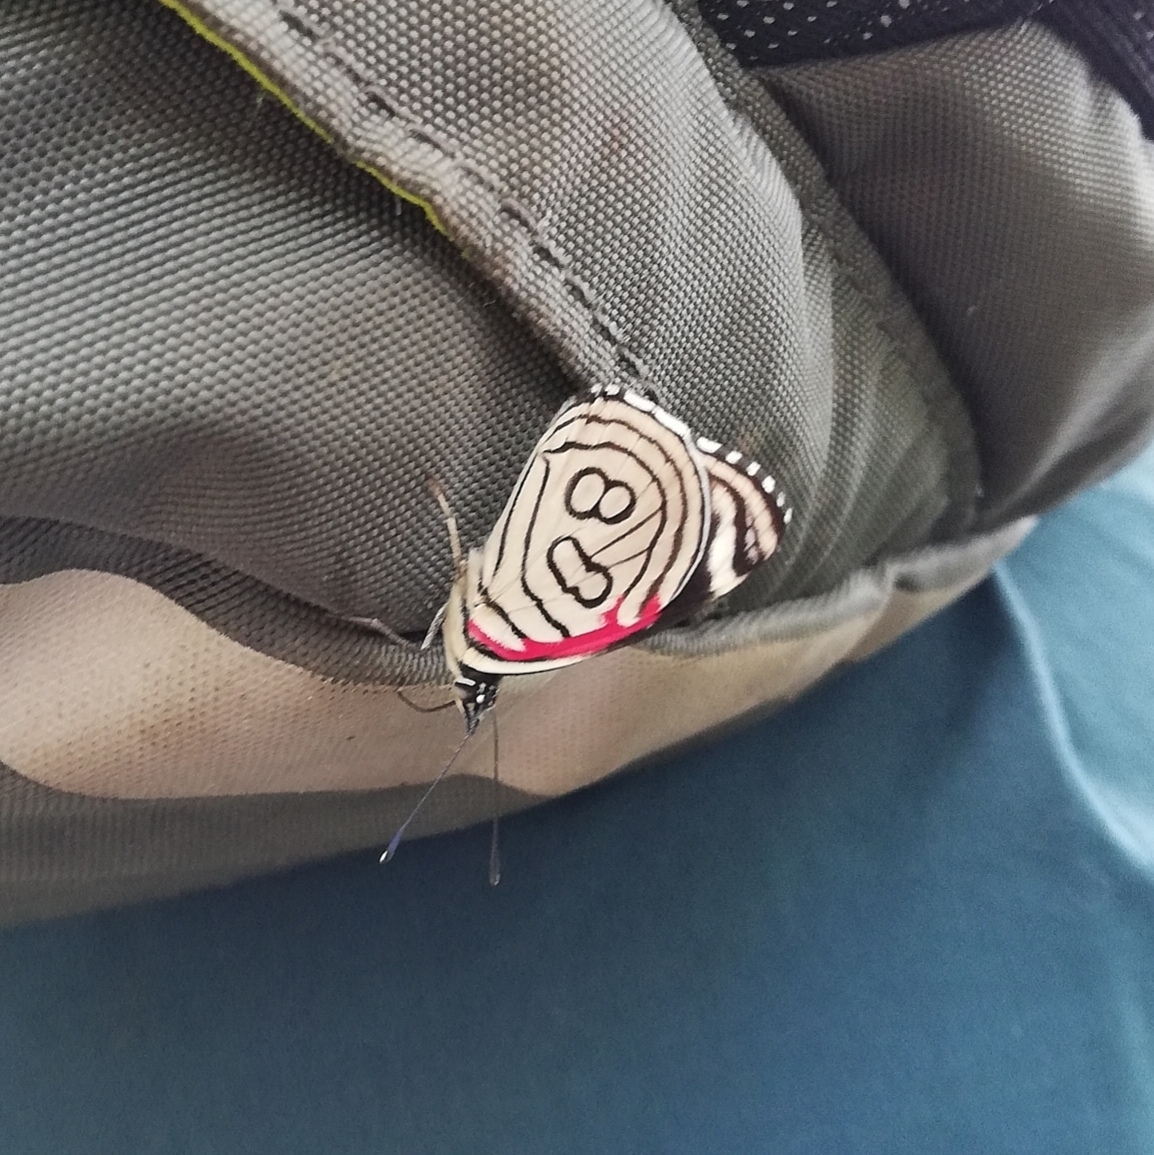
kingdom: Animalia
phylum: Arthropoda
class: Insecta
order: Lepidoptera
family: Nymphalidae
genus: Diaethria
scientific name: Diaethria candrena
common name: Number eighty
